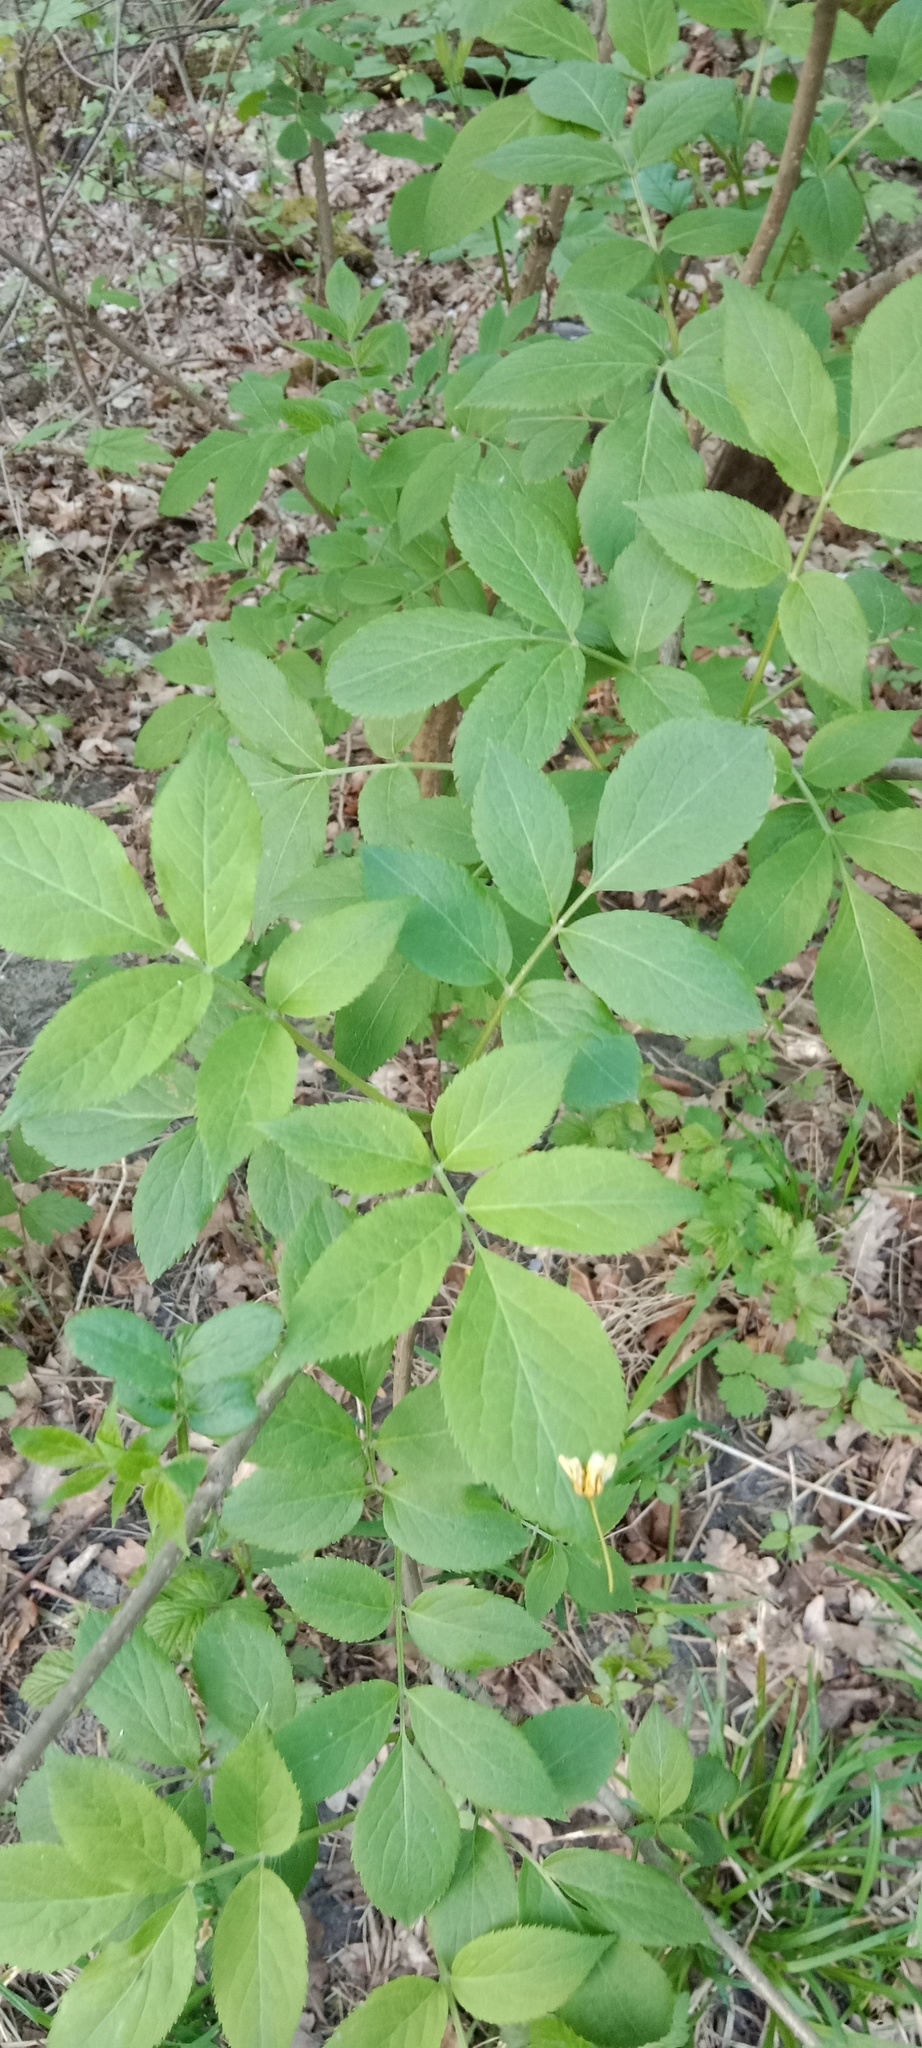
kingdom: Plantae
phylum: Tracheophyta
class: Magnoliopsida
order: Dipsacales
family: Viburnaceae
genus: Sambucus
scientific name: Sambucus nigra
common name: Elder
